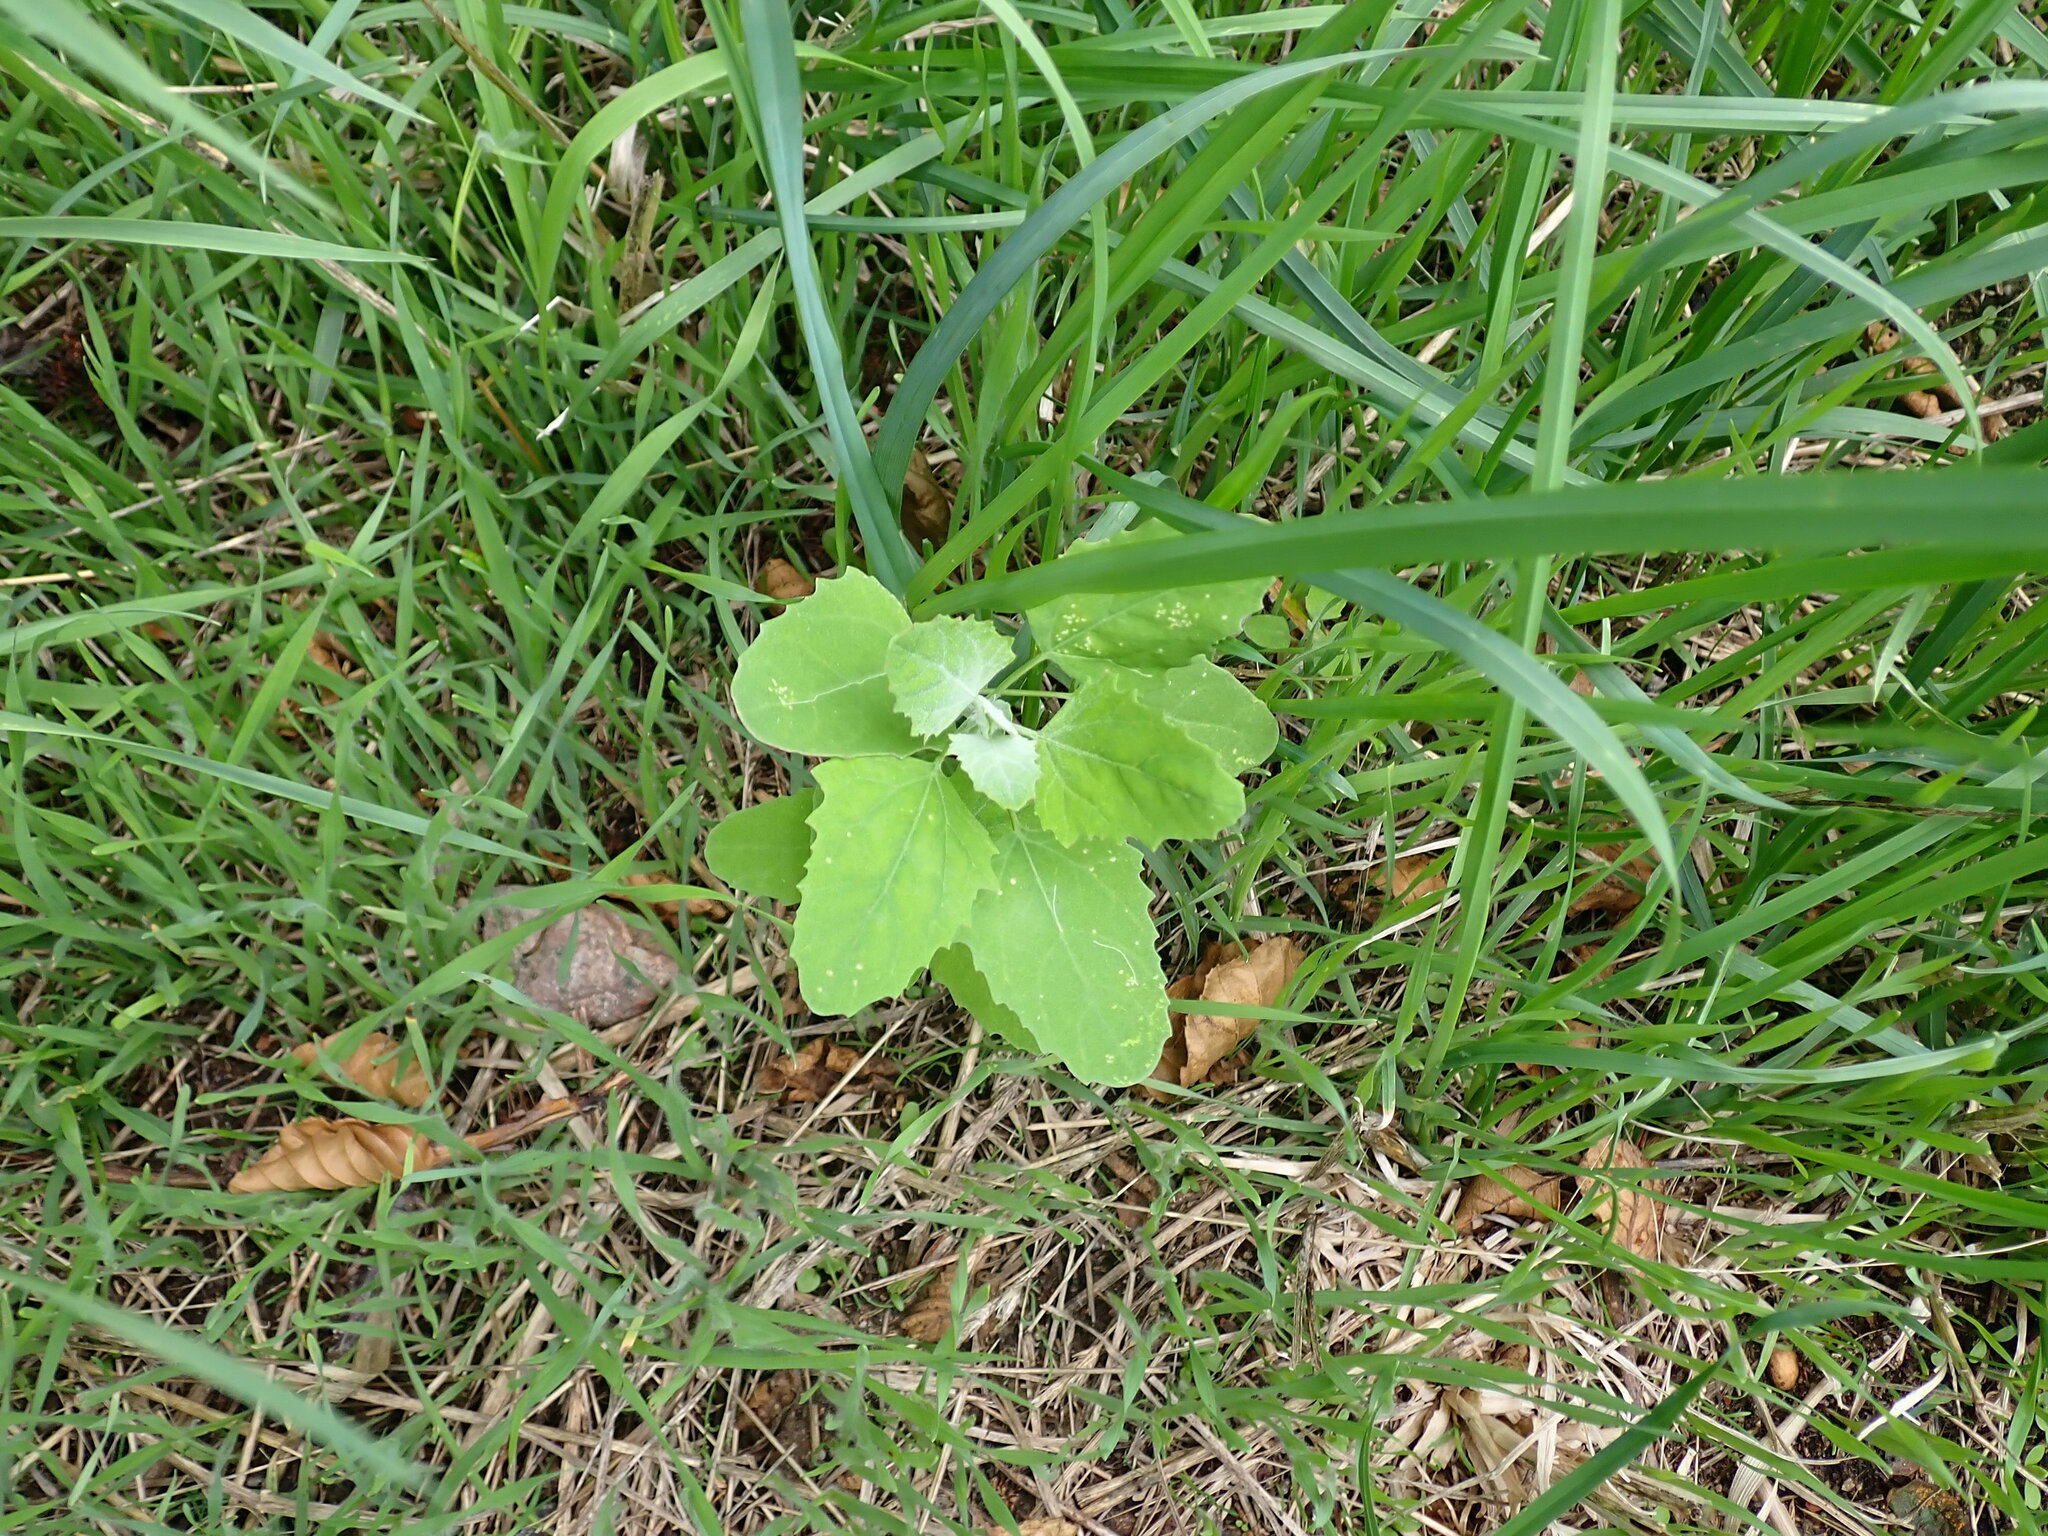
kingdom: Plantae
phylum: Tracheophyta
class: Magnoliopsida
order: Caryophyllales
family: Amaranthaceae
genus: Chenopodium
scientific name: Chenopodium album
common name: Fat-hen
